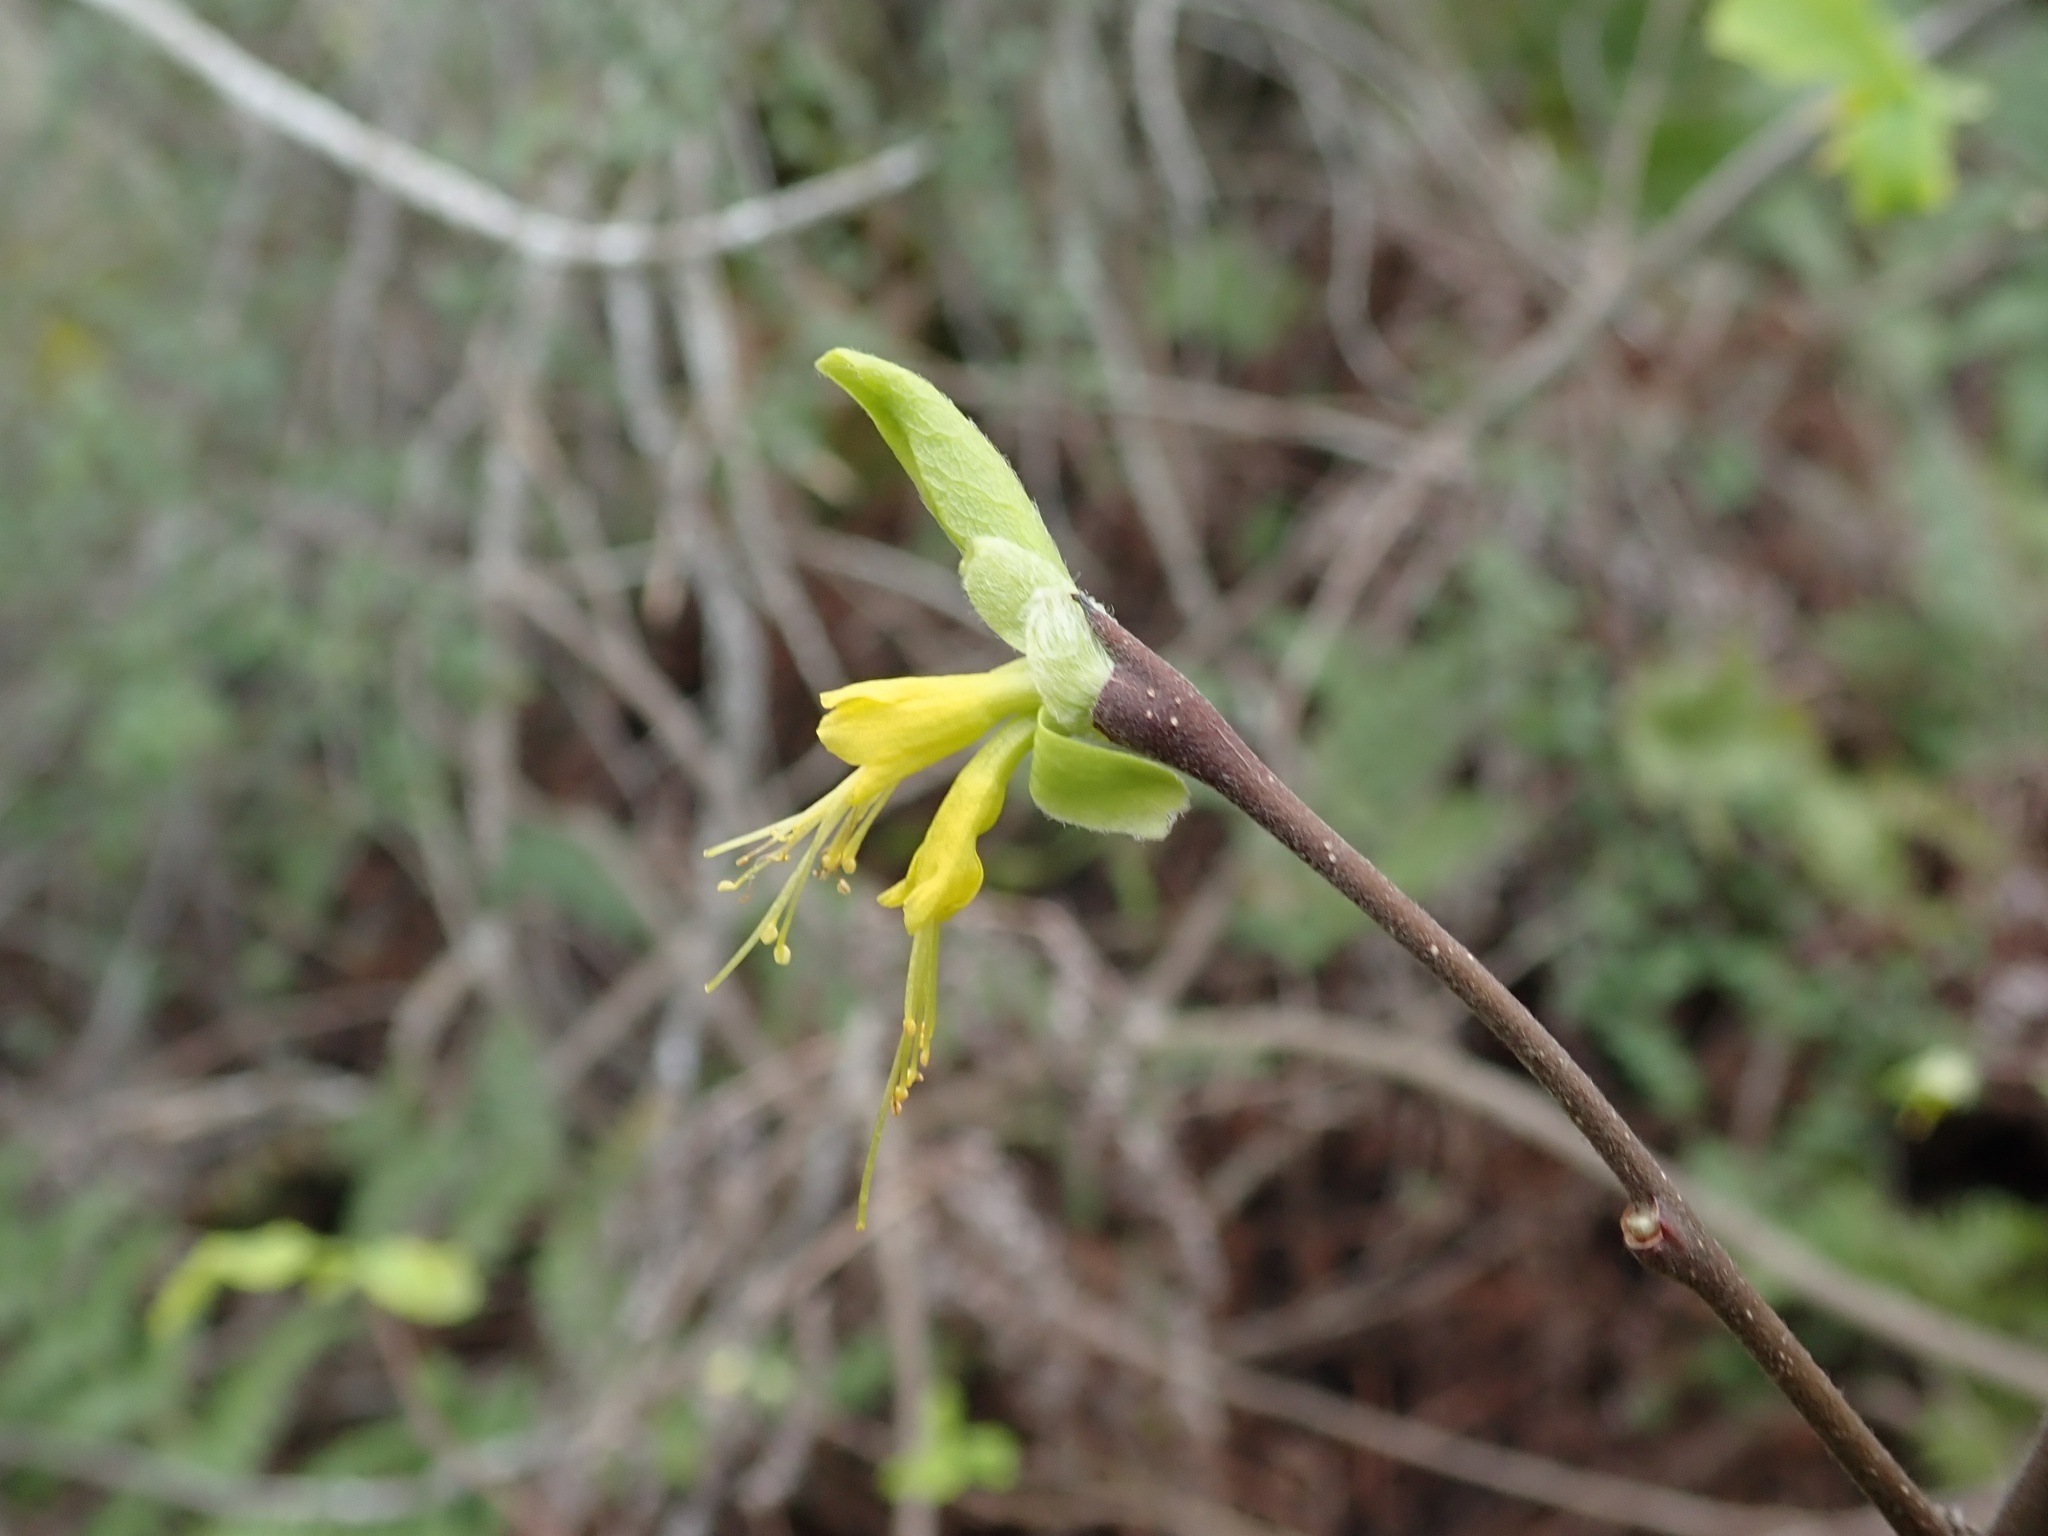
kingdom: Plantae
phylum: Tracheophyta
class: Magnoliopsida
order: Malvales
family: Thymelaeaceae
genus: Dirca
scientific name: Dirca occidentalis
